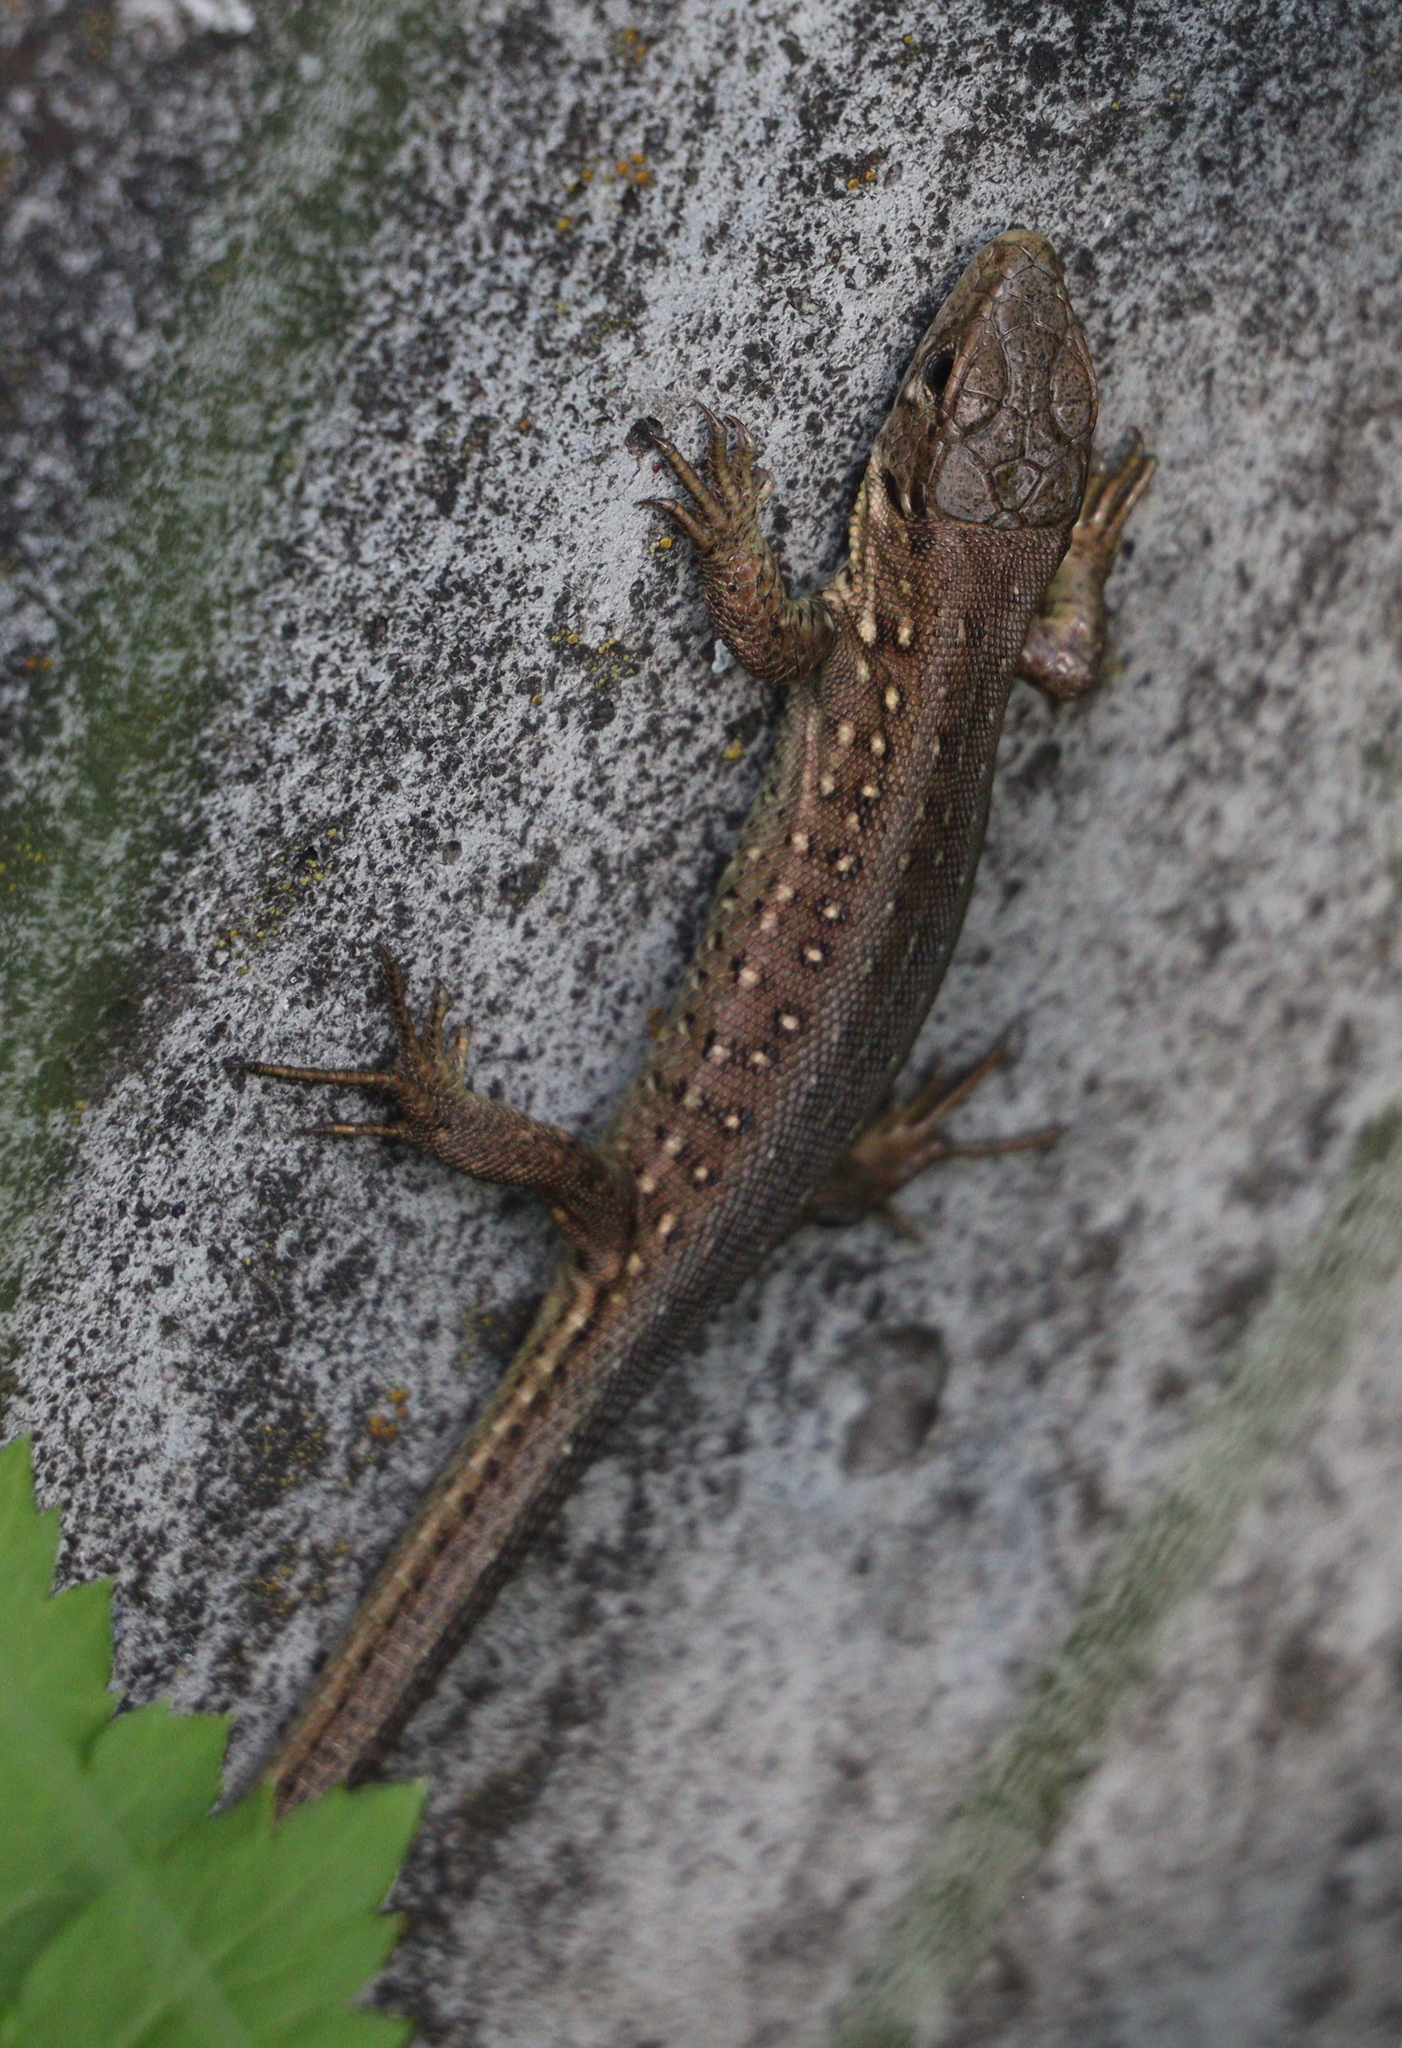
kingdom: Animalia
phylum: Chordata
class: Squamata
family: Lacertidae
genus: Lacerta
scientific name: Lacerta agilis
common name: Sand lizard
